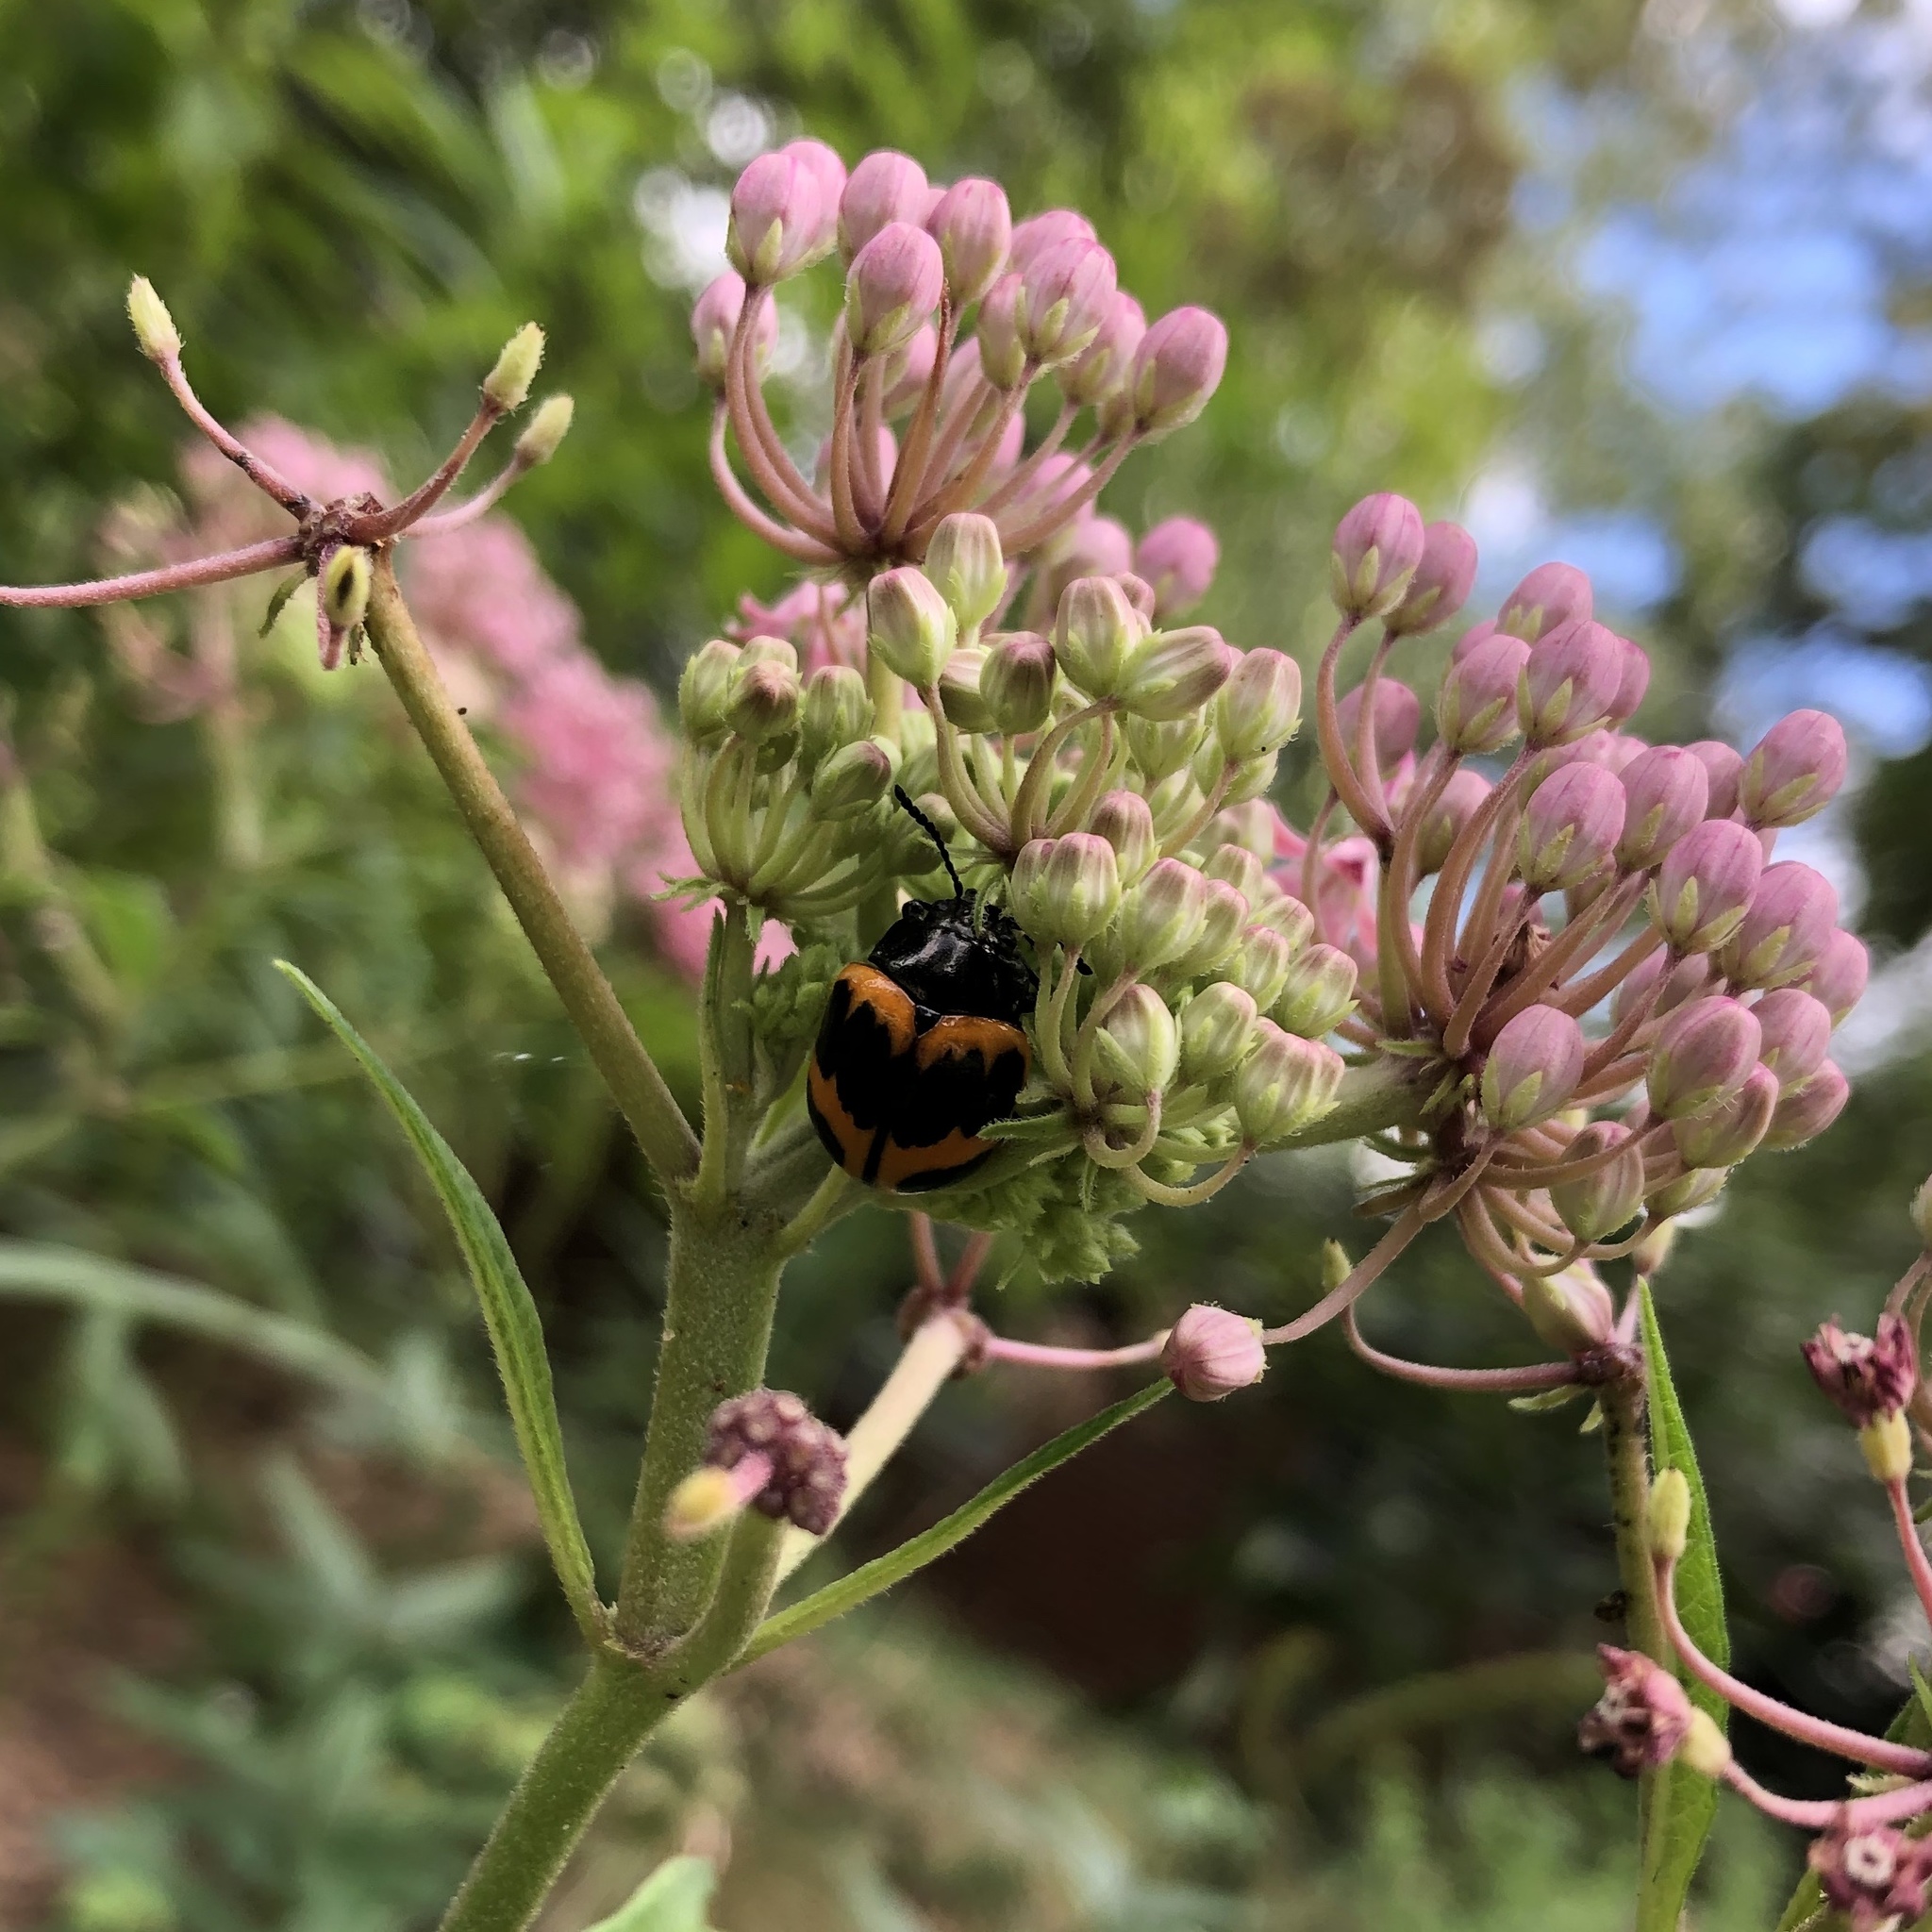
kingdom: Animalia
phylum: Arthropoda
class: Insecta
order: Coleoptera
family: Chrysomelidae
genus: Labidomera
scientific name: Labidomera clivicollis
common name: Swamp milkweed leaf beetle
